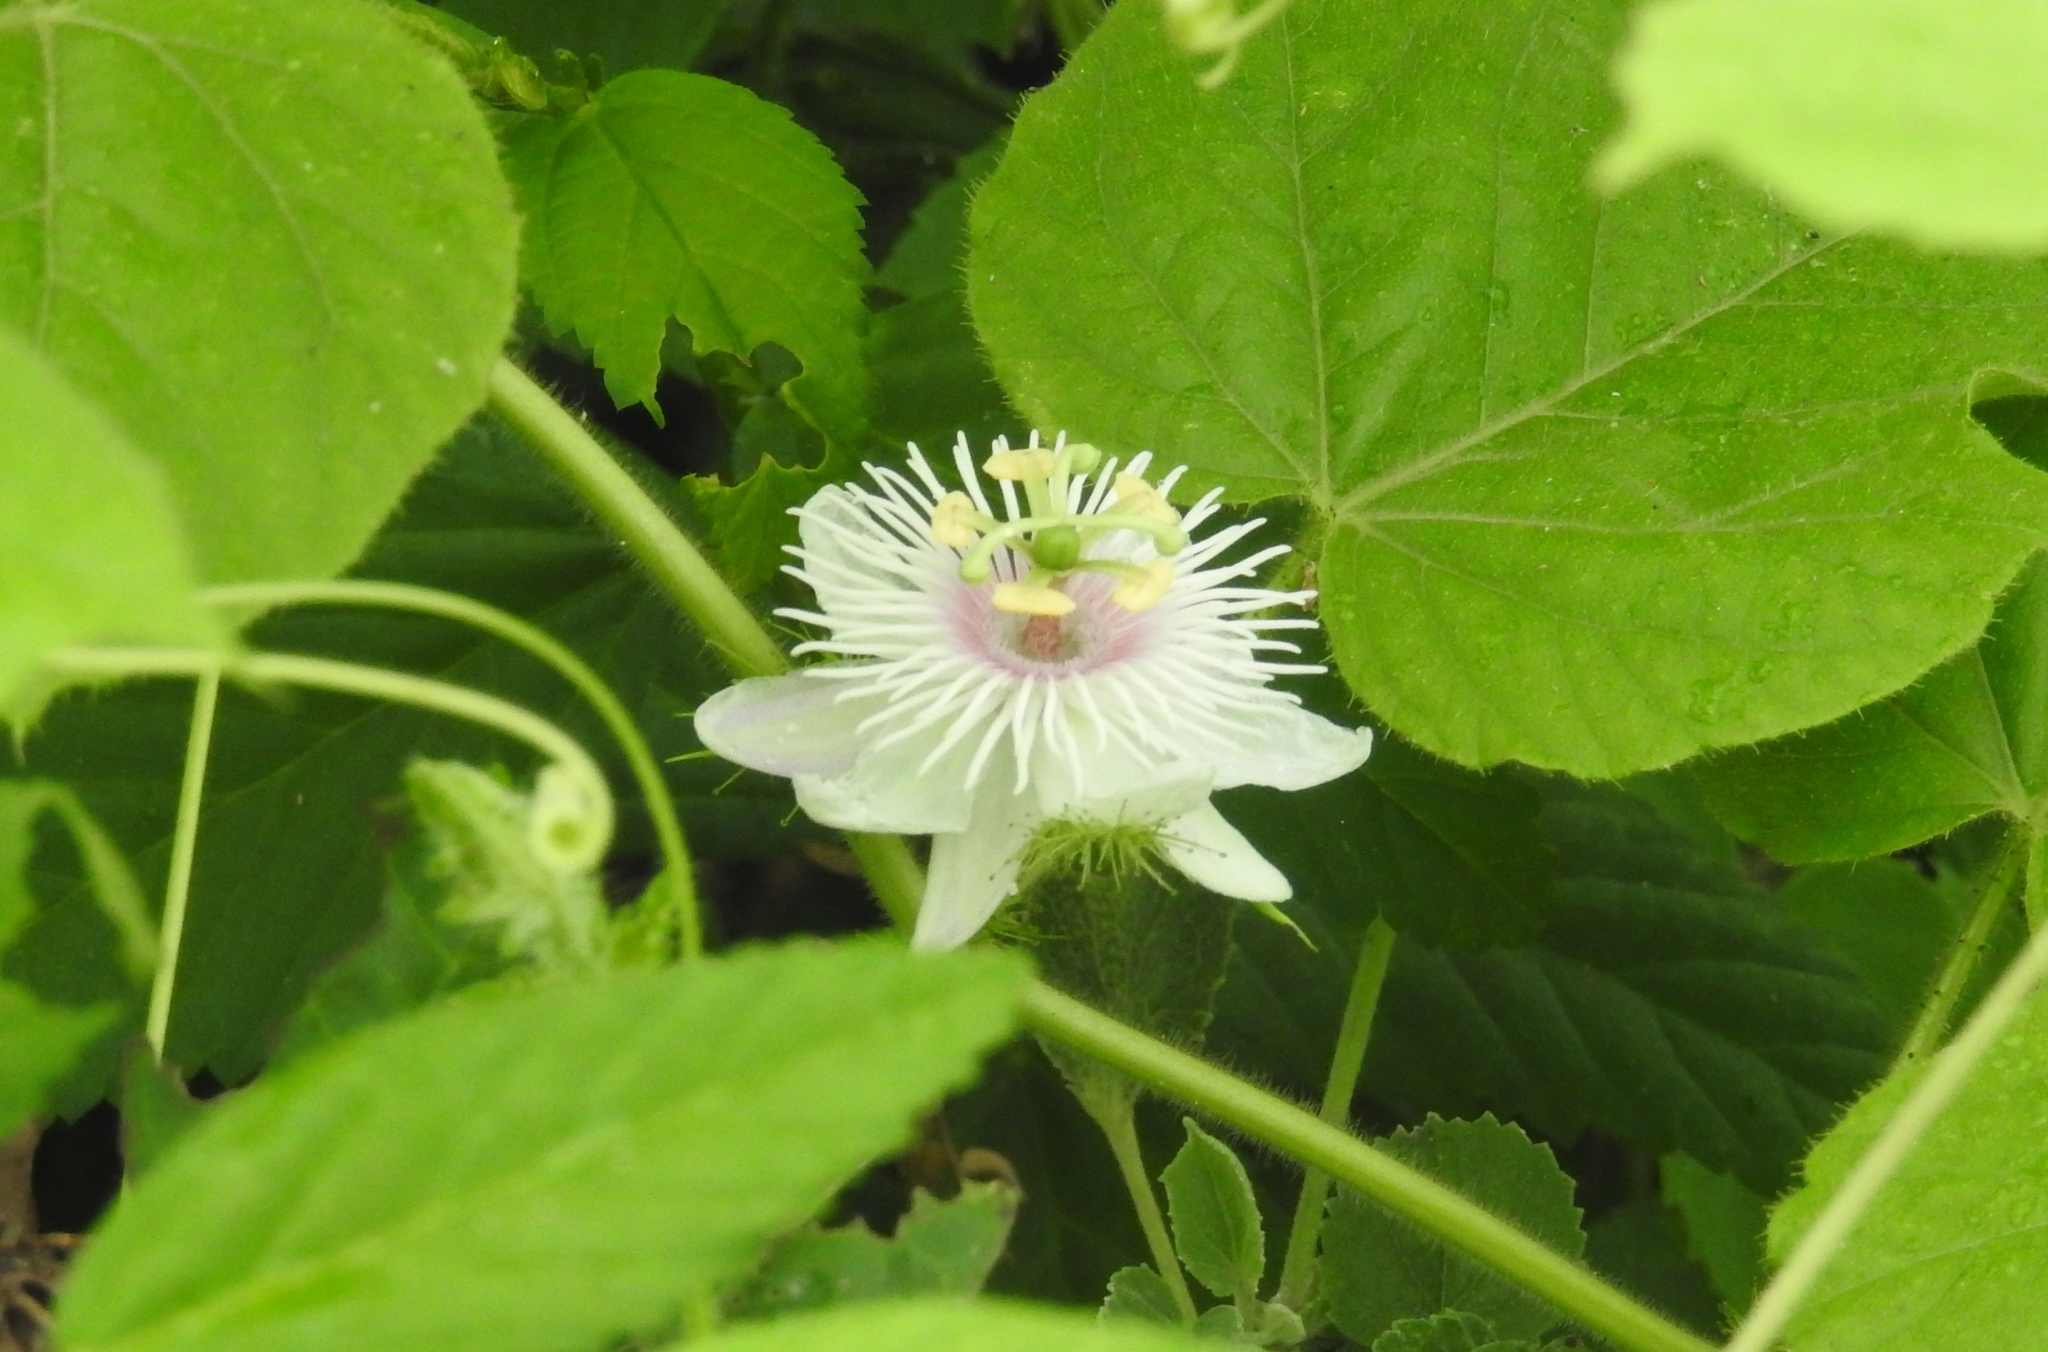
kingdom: Plantae
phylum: Tracheophyta
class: Magnoliopsida
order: Malpighiales
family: Passifloraceae
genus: Passiflora
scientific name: Passiflora foetida
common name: Fetid passionflower
